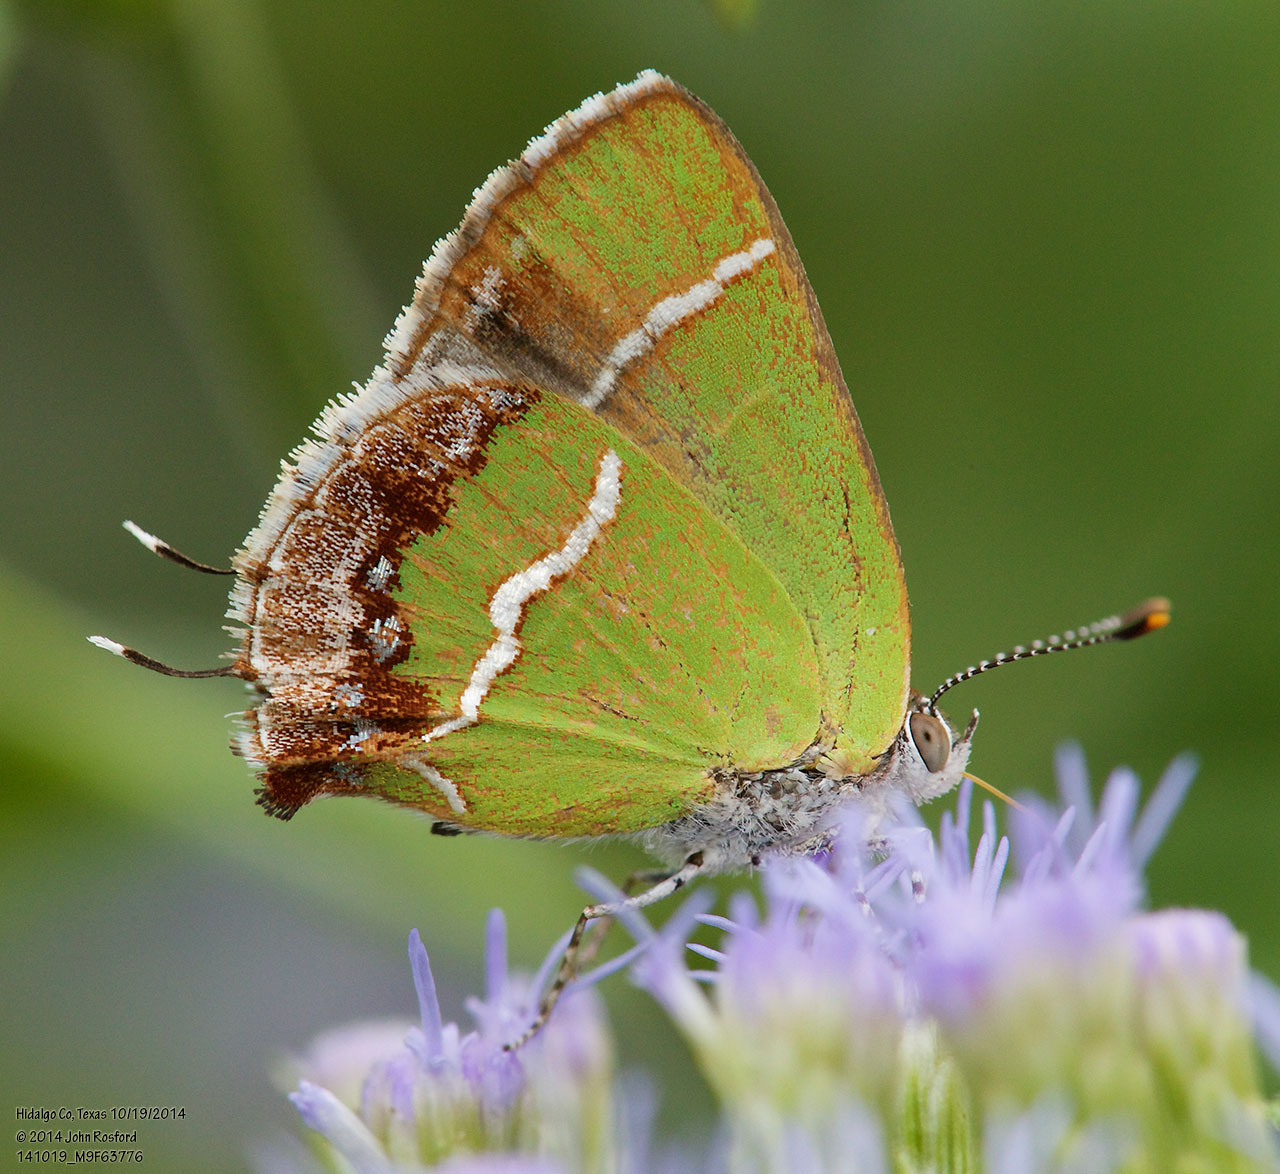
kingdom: Animalia
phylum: Arthropoda
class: Insecta
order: Lepidoptera
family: Lycaenidae
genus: Chlorostrymon
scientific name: Chlorostrymon simaethis
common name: Silver-banded hairstreak
